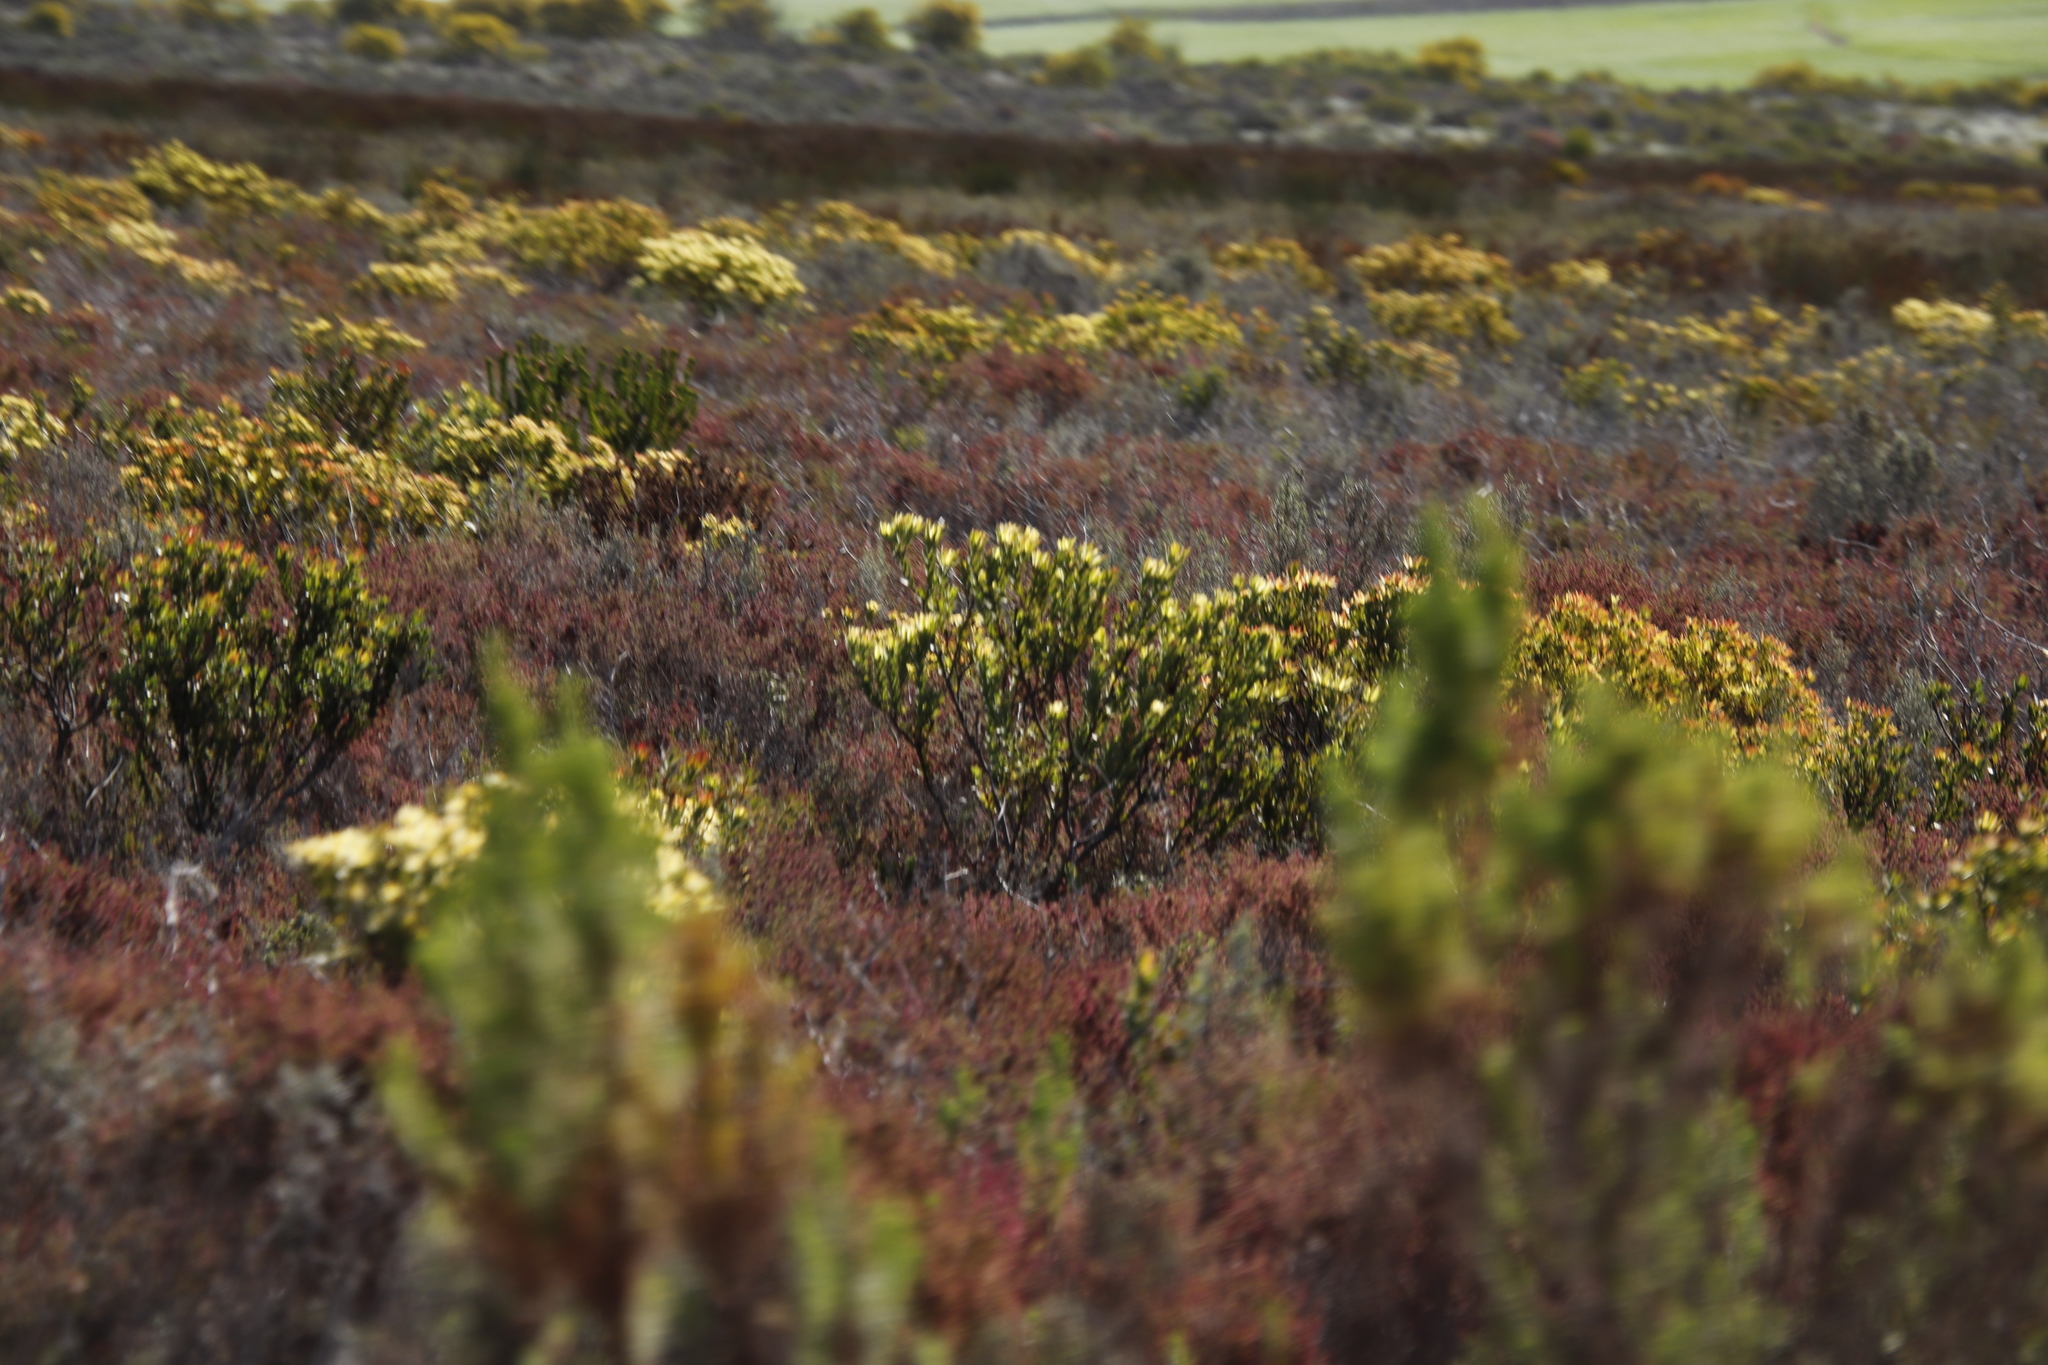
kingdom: Plantae
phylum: Tracheophyta
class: Magnoliopsida
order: Proteales
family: Proteaceae
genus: Leucadendron
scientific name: Leucadendron elimense
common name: Elim conebush
